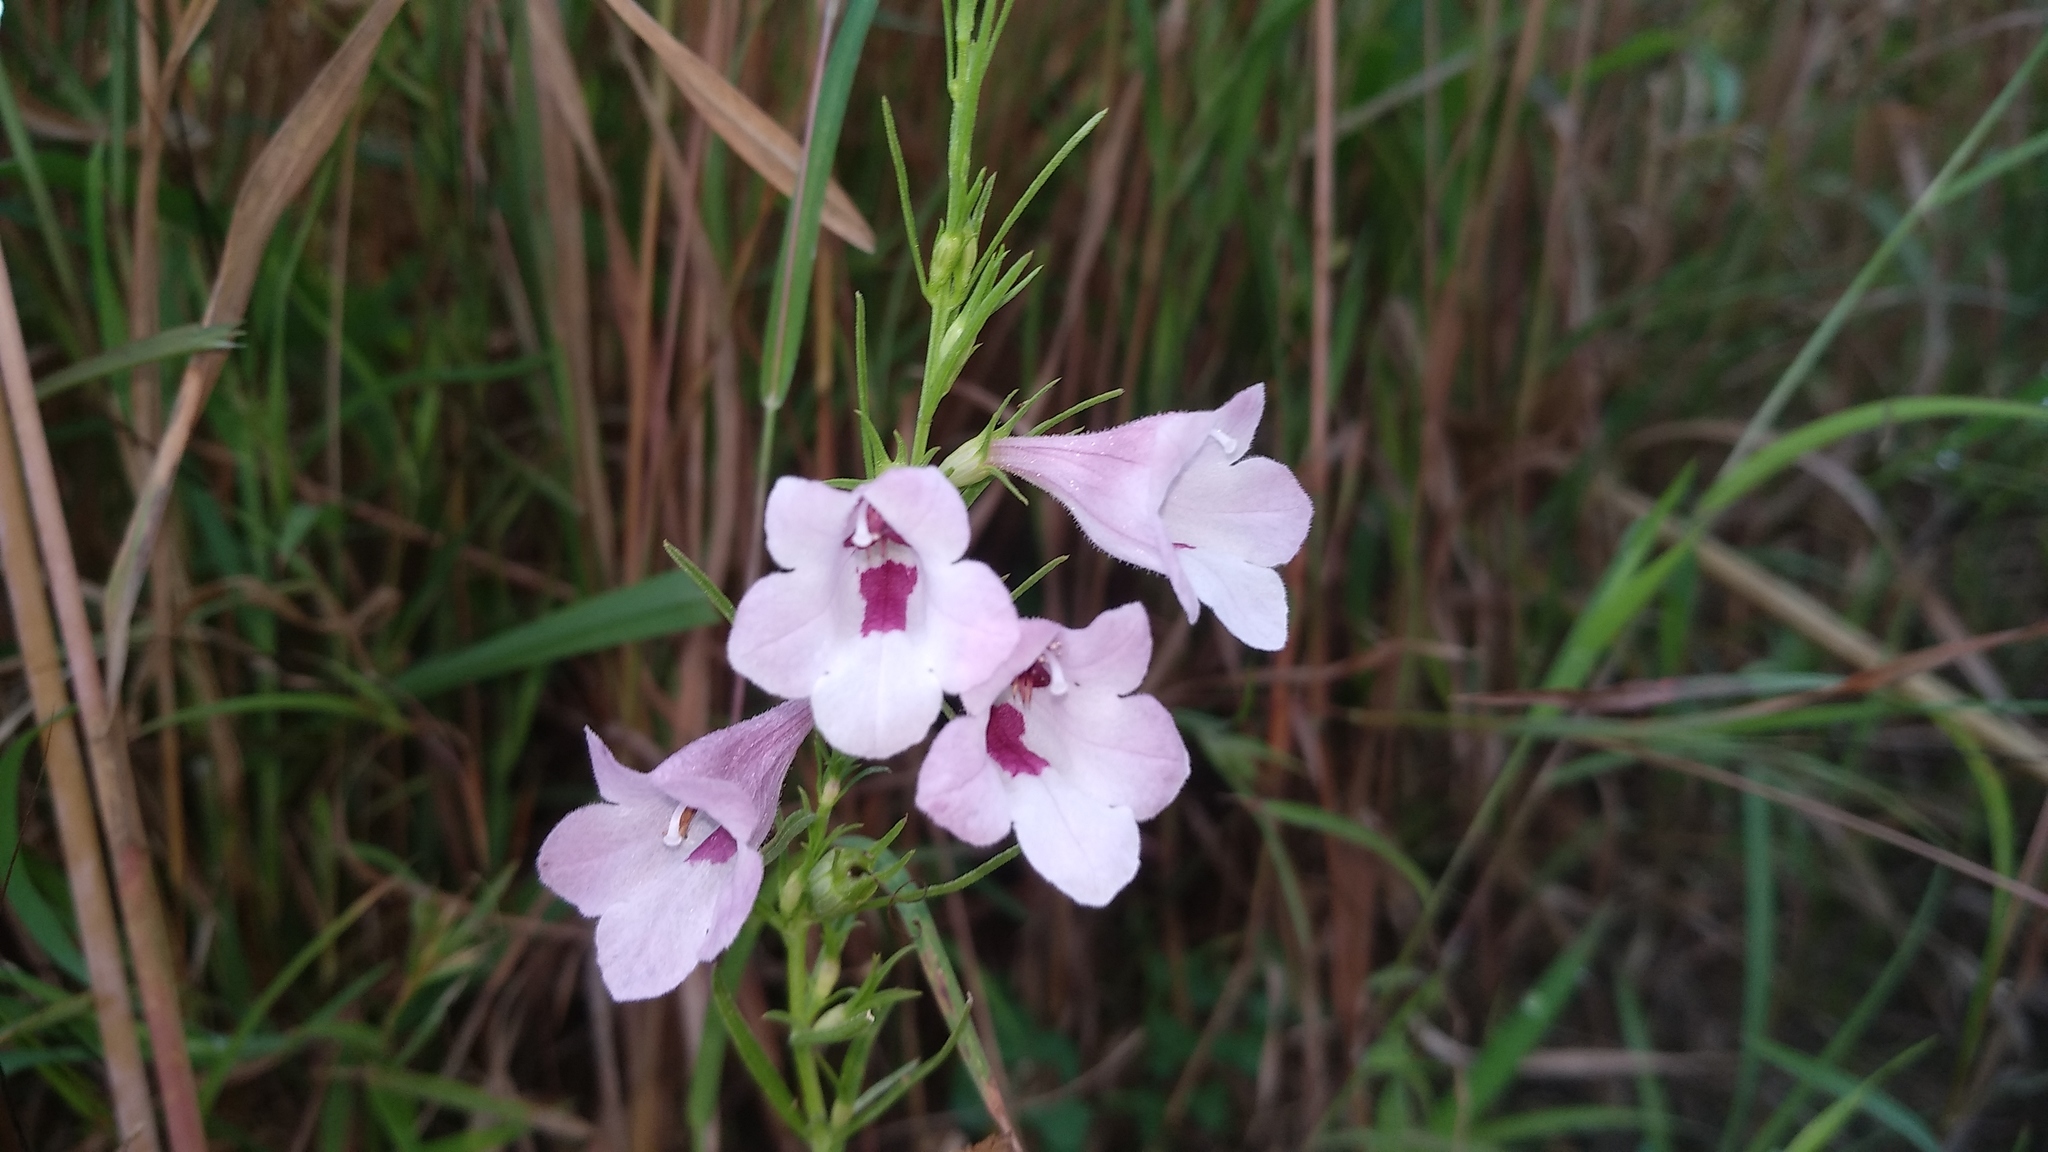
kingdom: Plantae
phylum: Tracheophyta
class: Magnoliopsida
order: Lamiales
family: Orobanchaceae
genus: Parasopubia
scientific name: Parasopubia delphiniifolia
